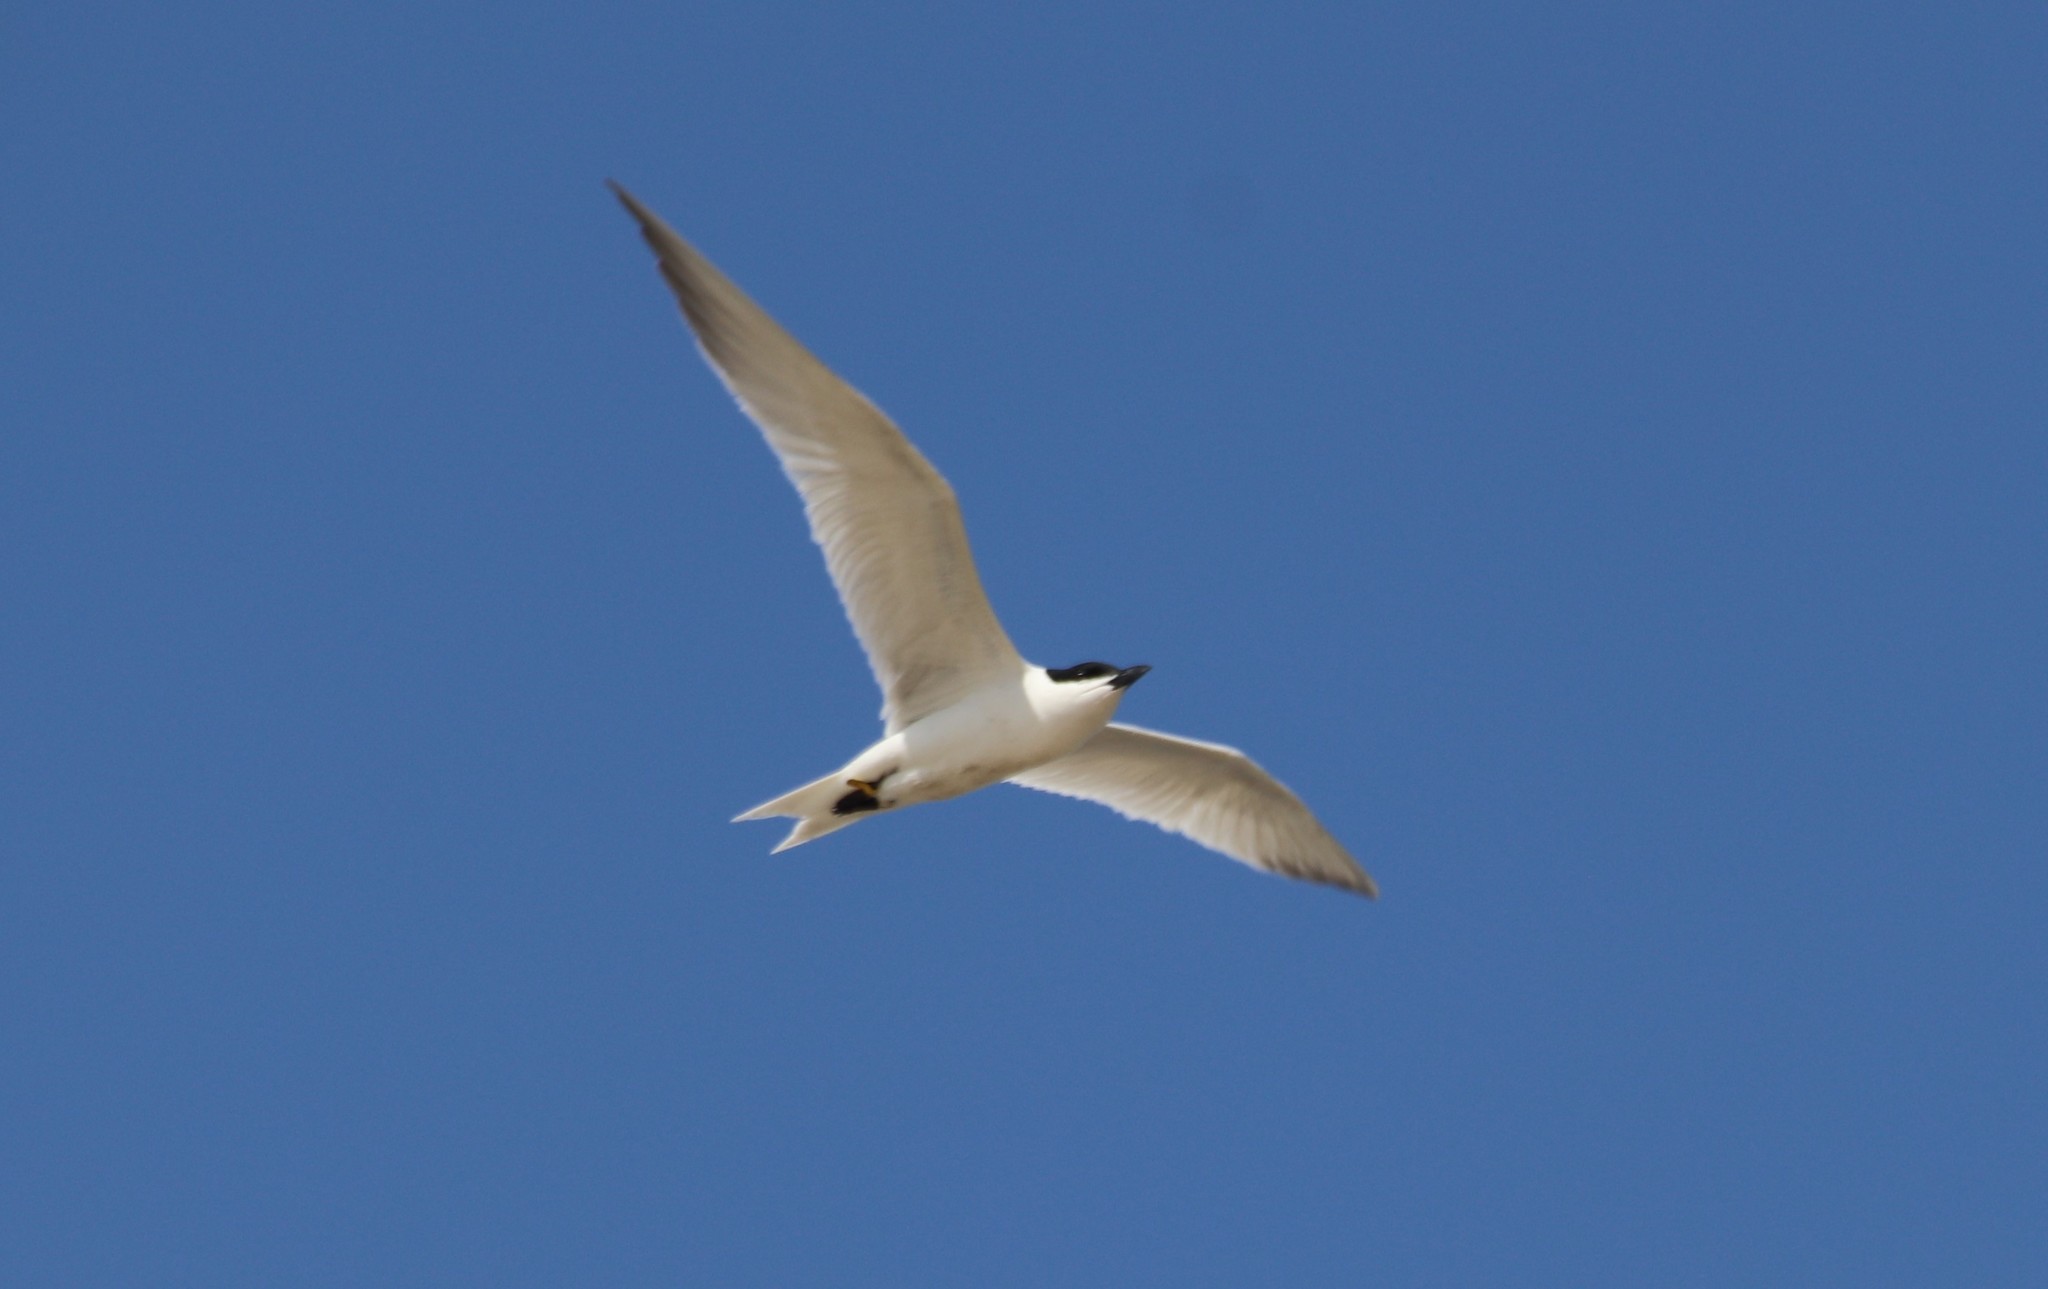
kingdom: Animalia
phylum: Chordata
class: Aves
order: Charadriiformes
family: Laridae
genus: Gelochelidon
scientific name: Gelochelidon nilotica
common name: Gull-billed tern
